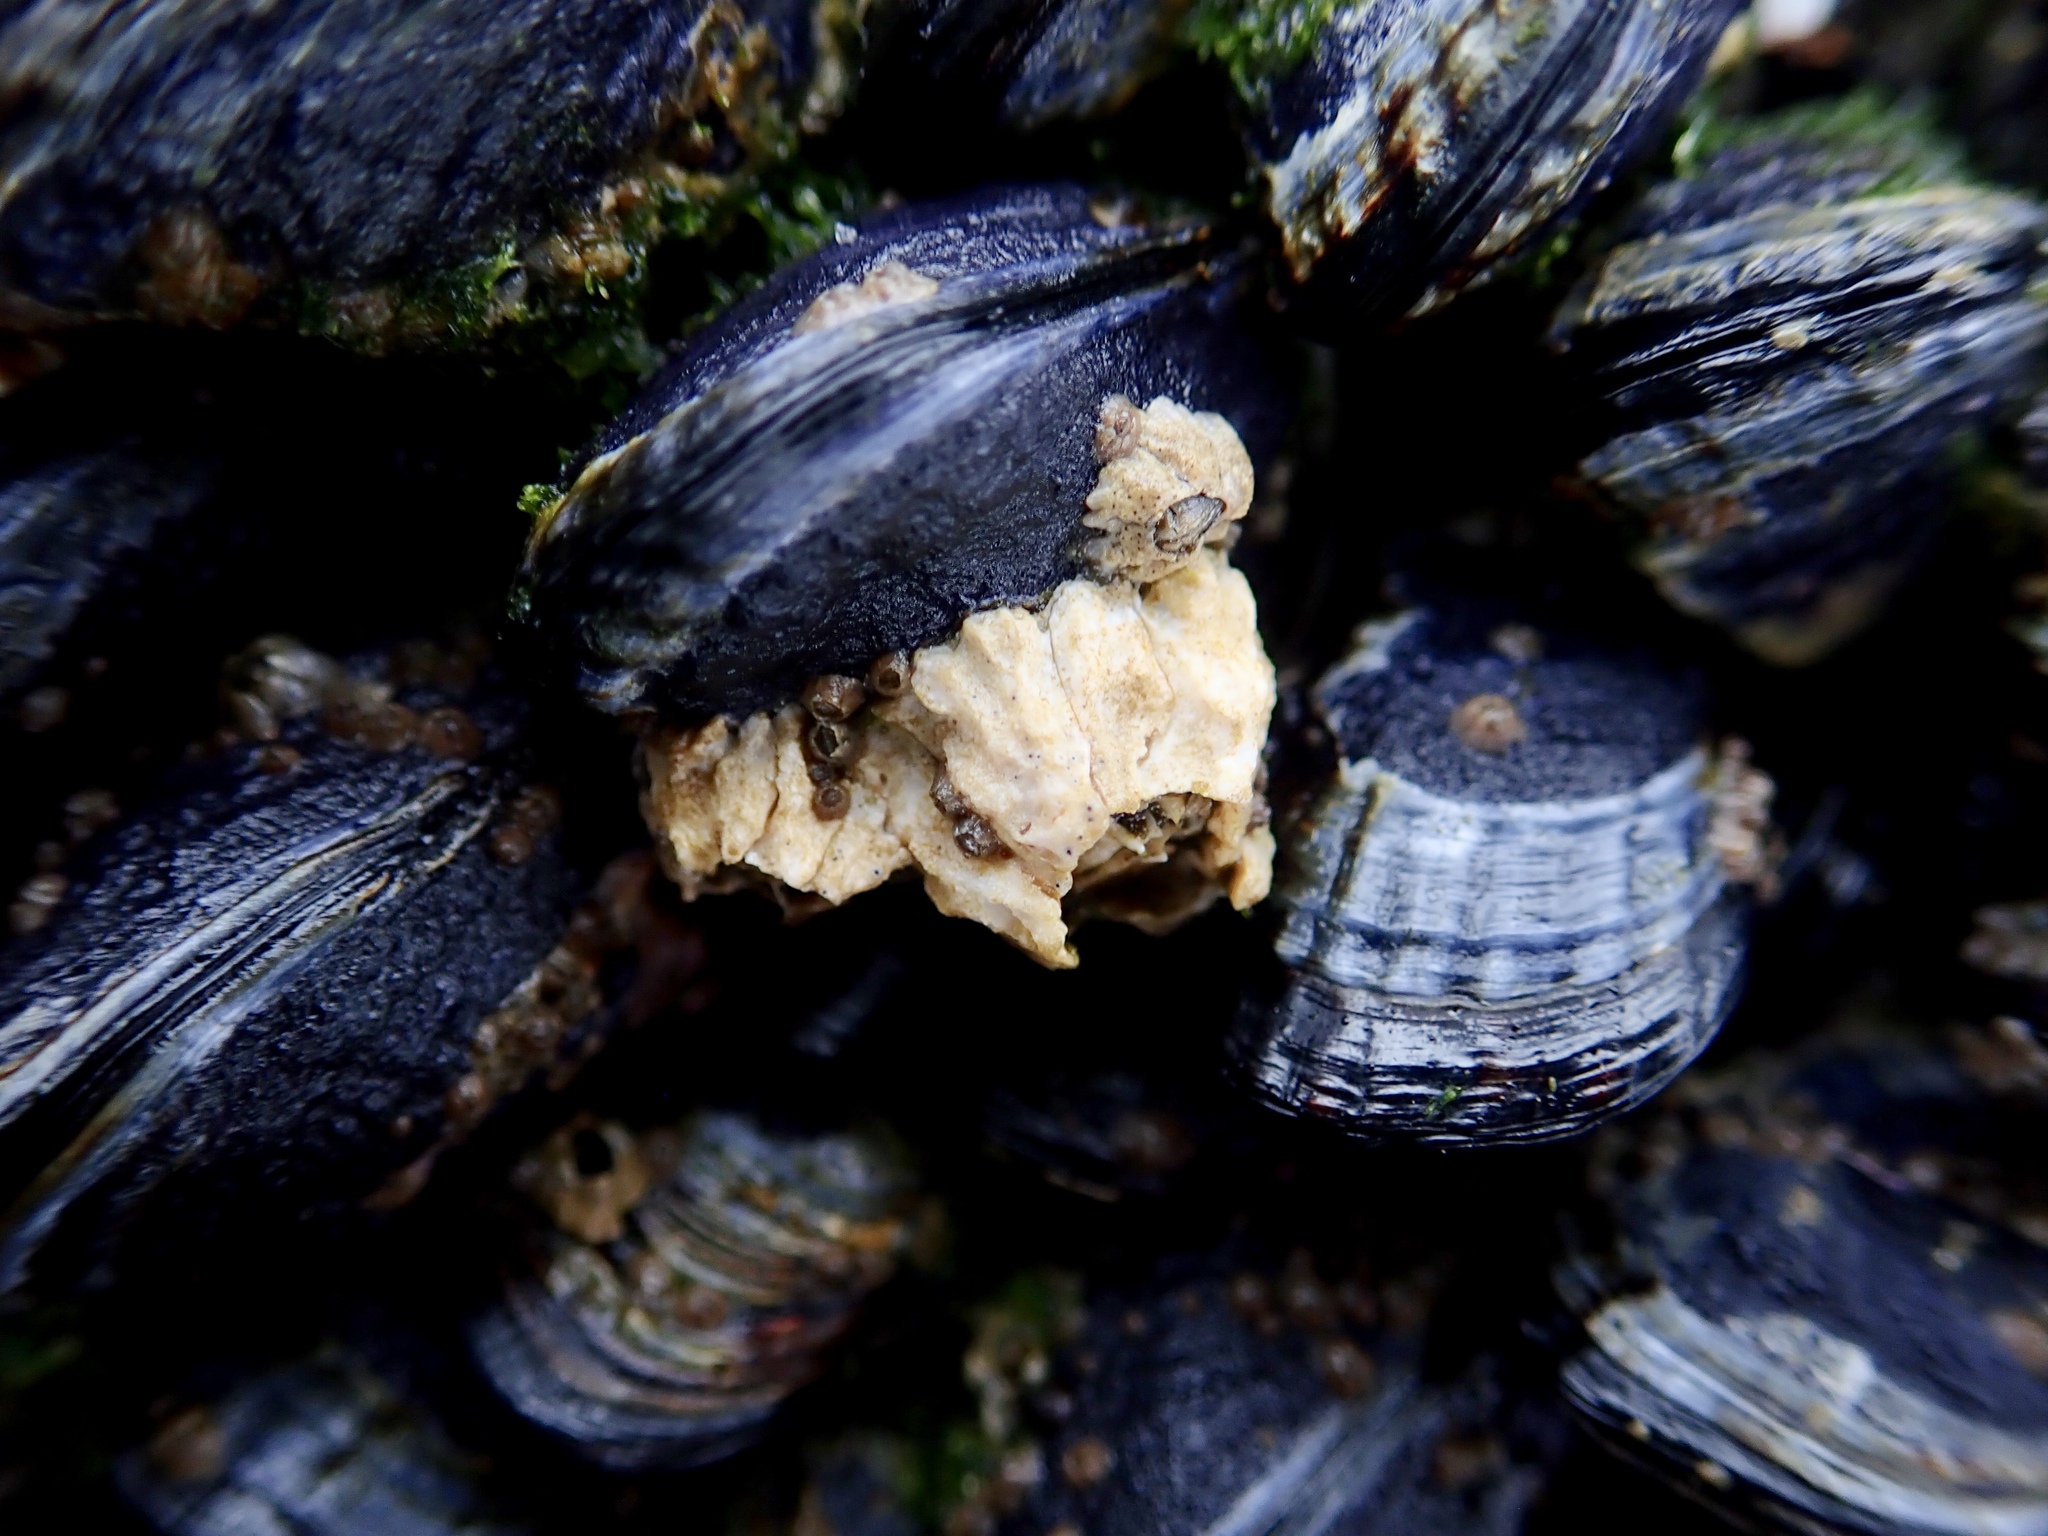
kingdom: Animalia
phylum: Arthropoda
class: Maxillopoda
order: Sessilia
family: Balanidae
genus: Balanus
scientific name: Balanus glandula
